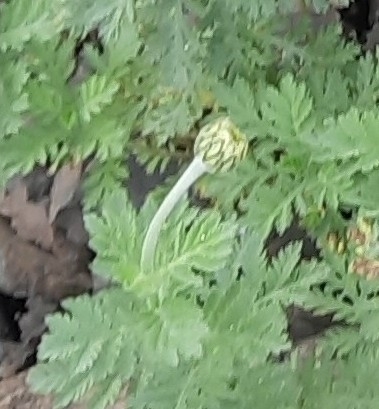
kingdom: Plantae
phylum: Tracheophyta
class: Magnoliopsida
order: Asterales
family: Asteraceae
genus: Cota
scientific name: Cota melanoloma
